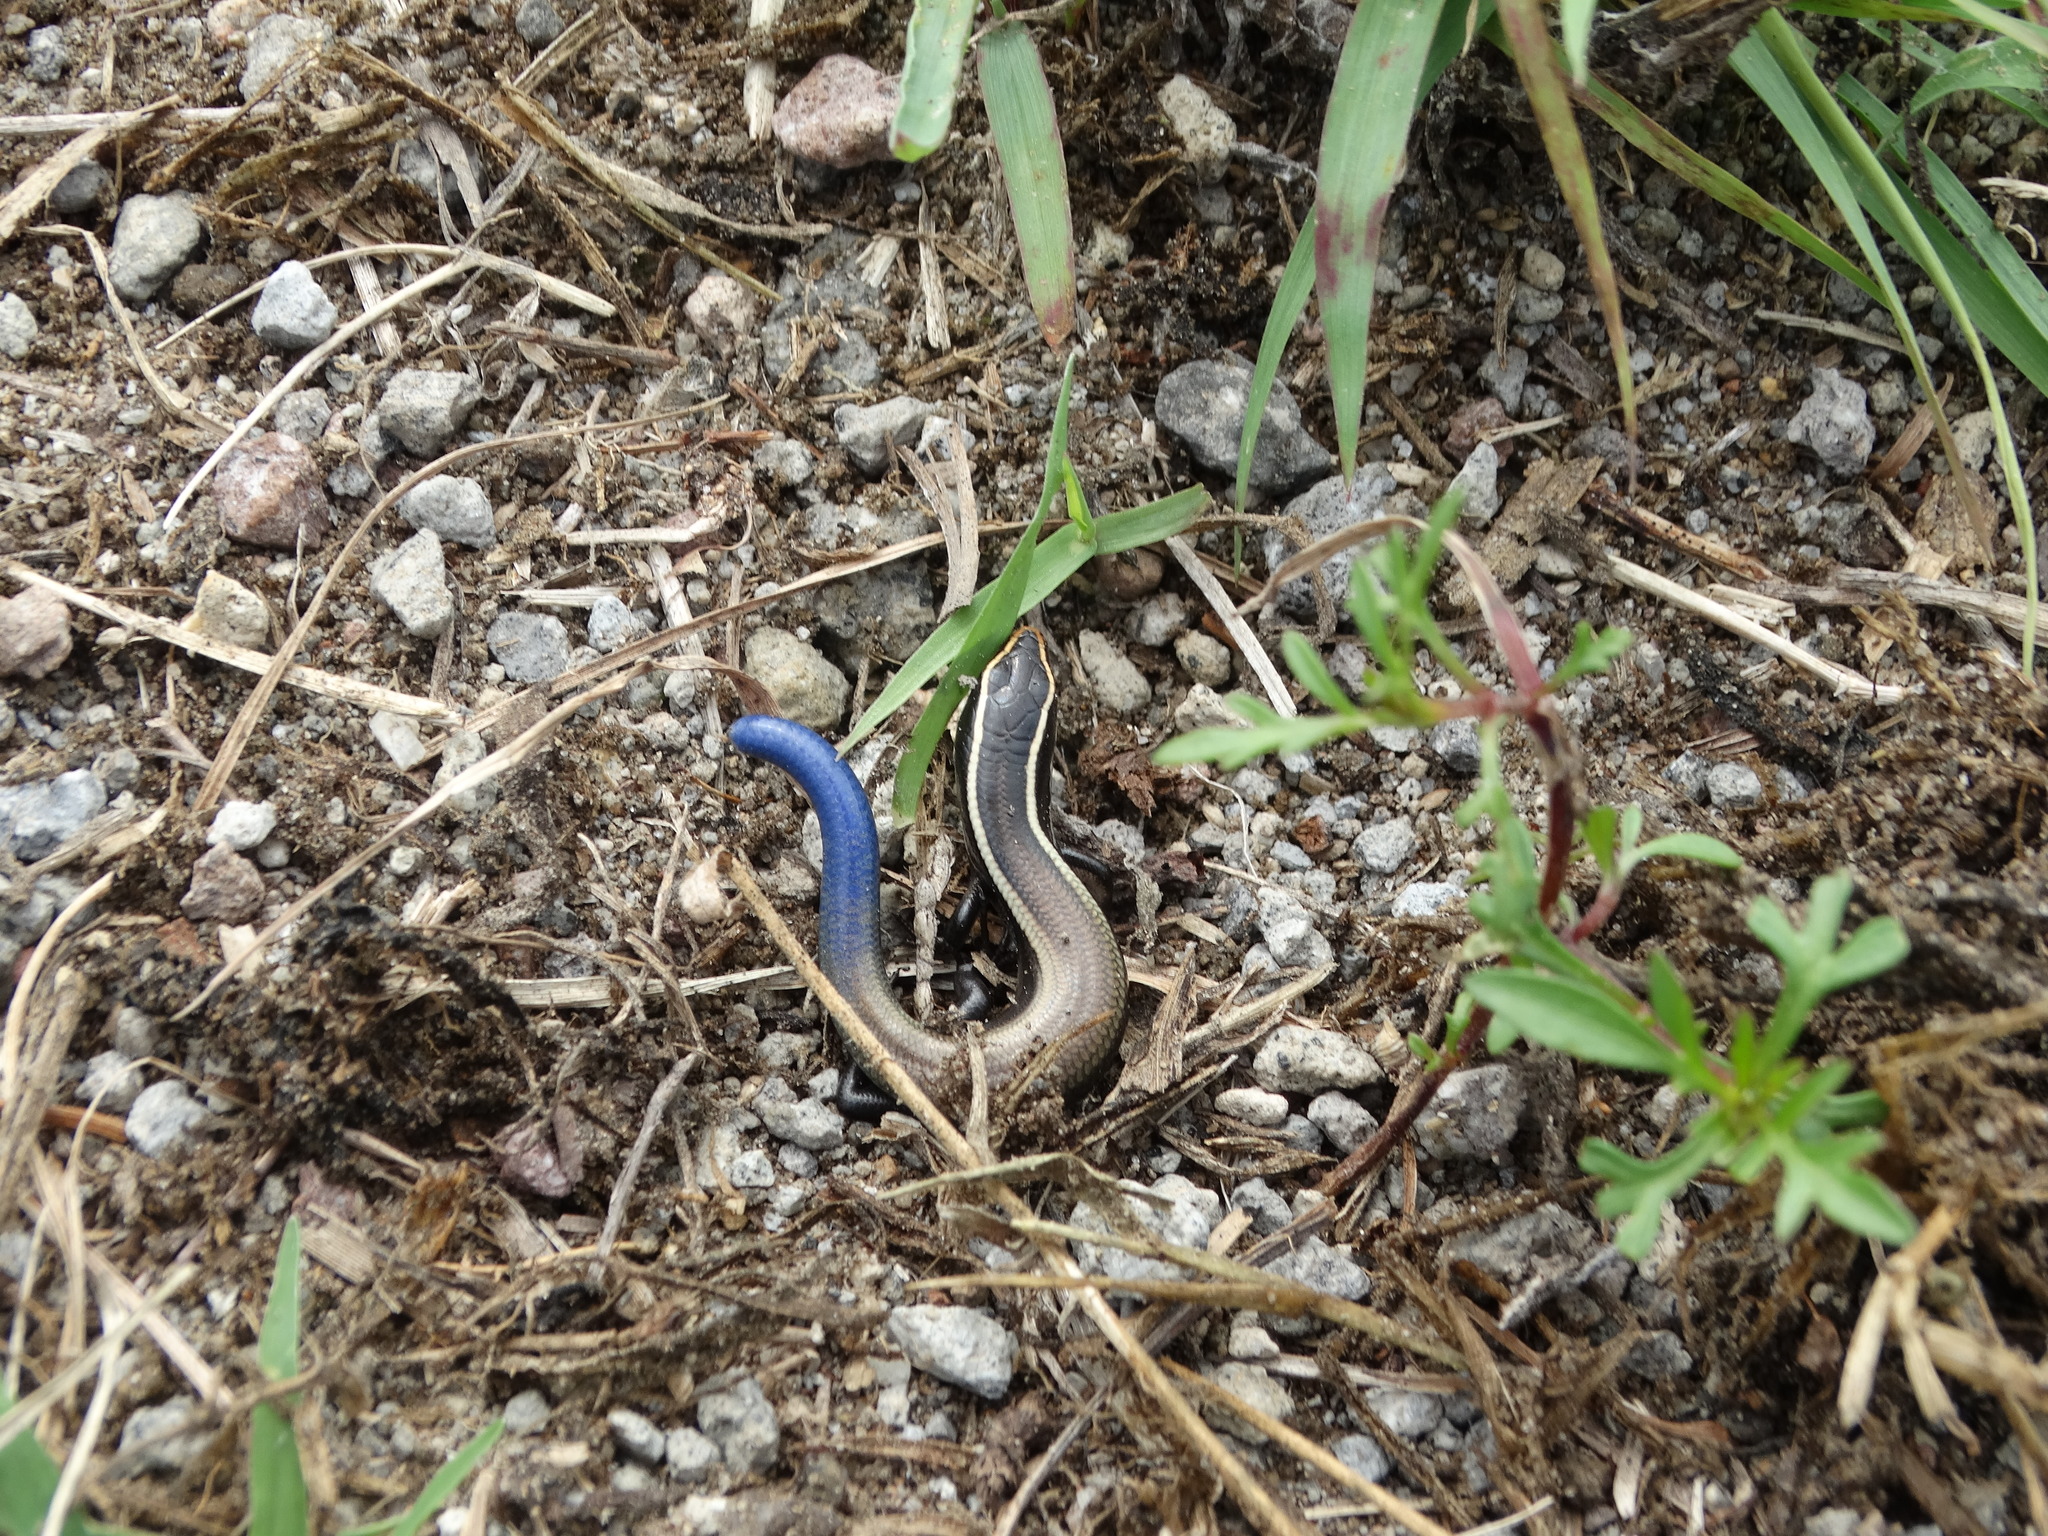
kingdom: Animalia
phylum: Chordata
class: Squamata
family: Scincidae
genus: Plestiodon
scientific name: Plestiodon brevirostris
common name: Shortnose skink
